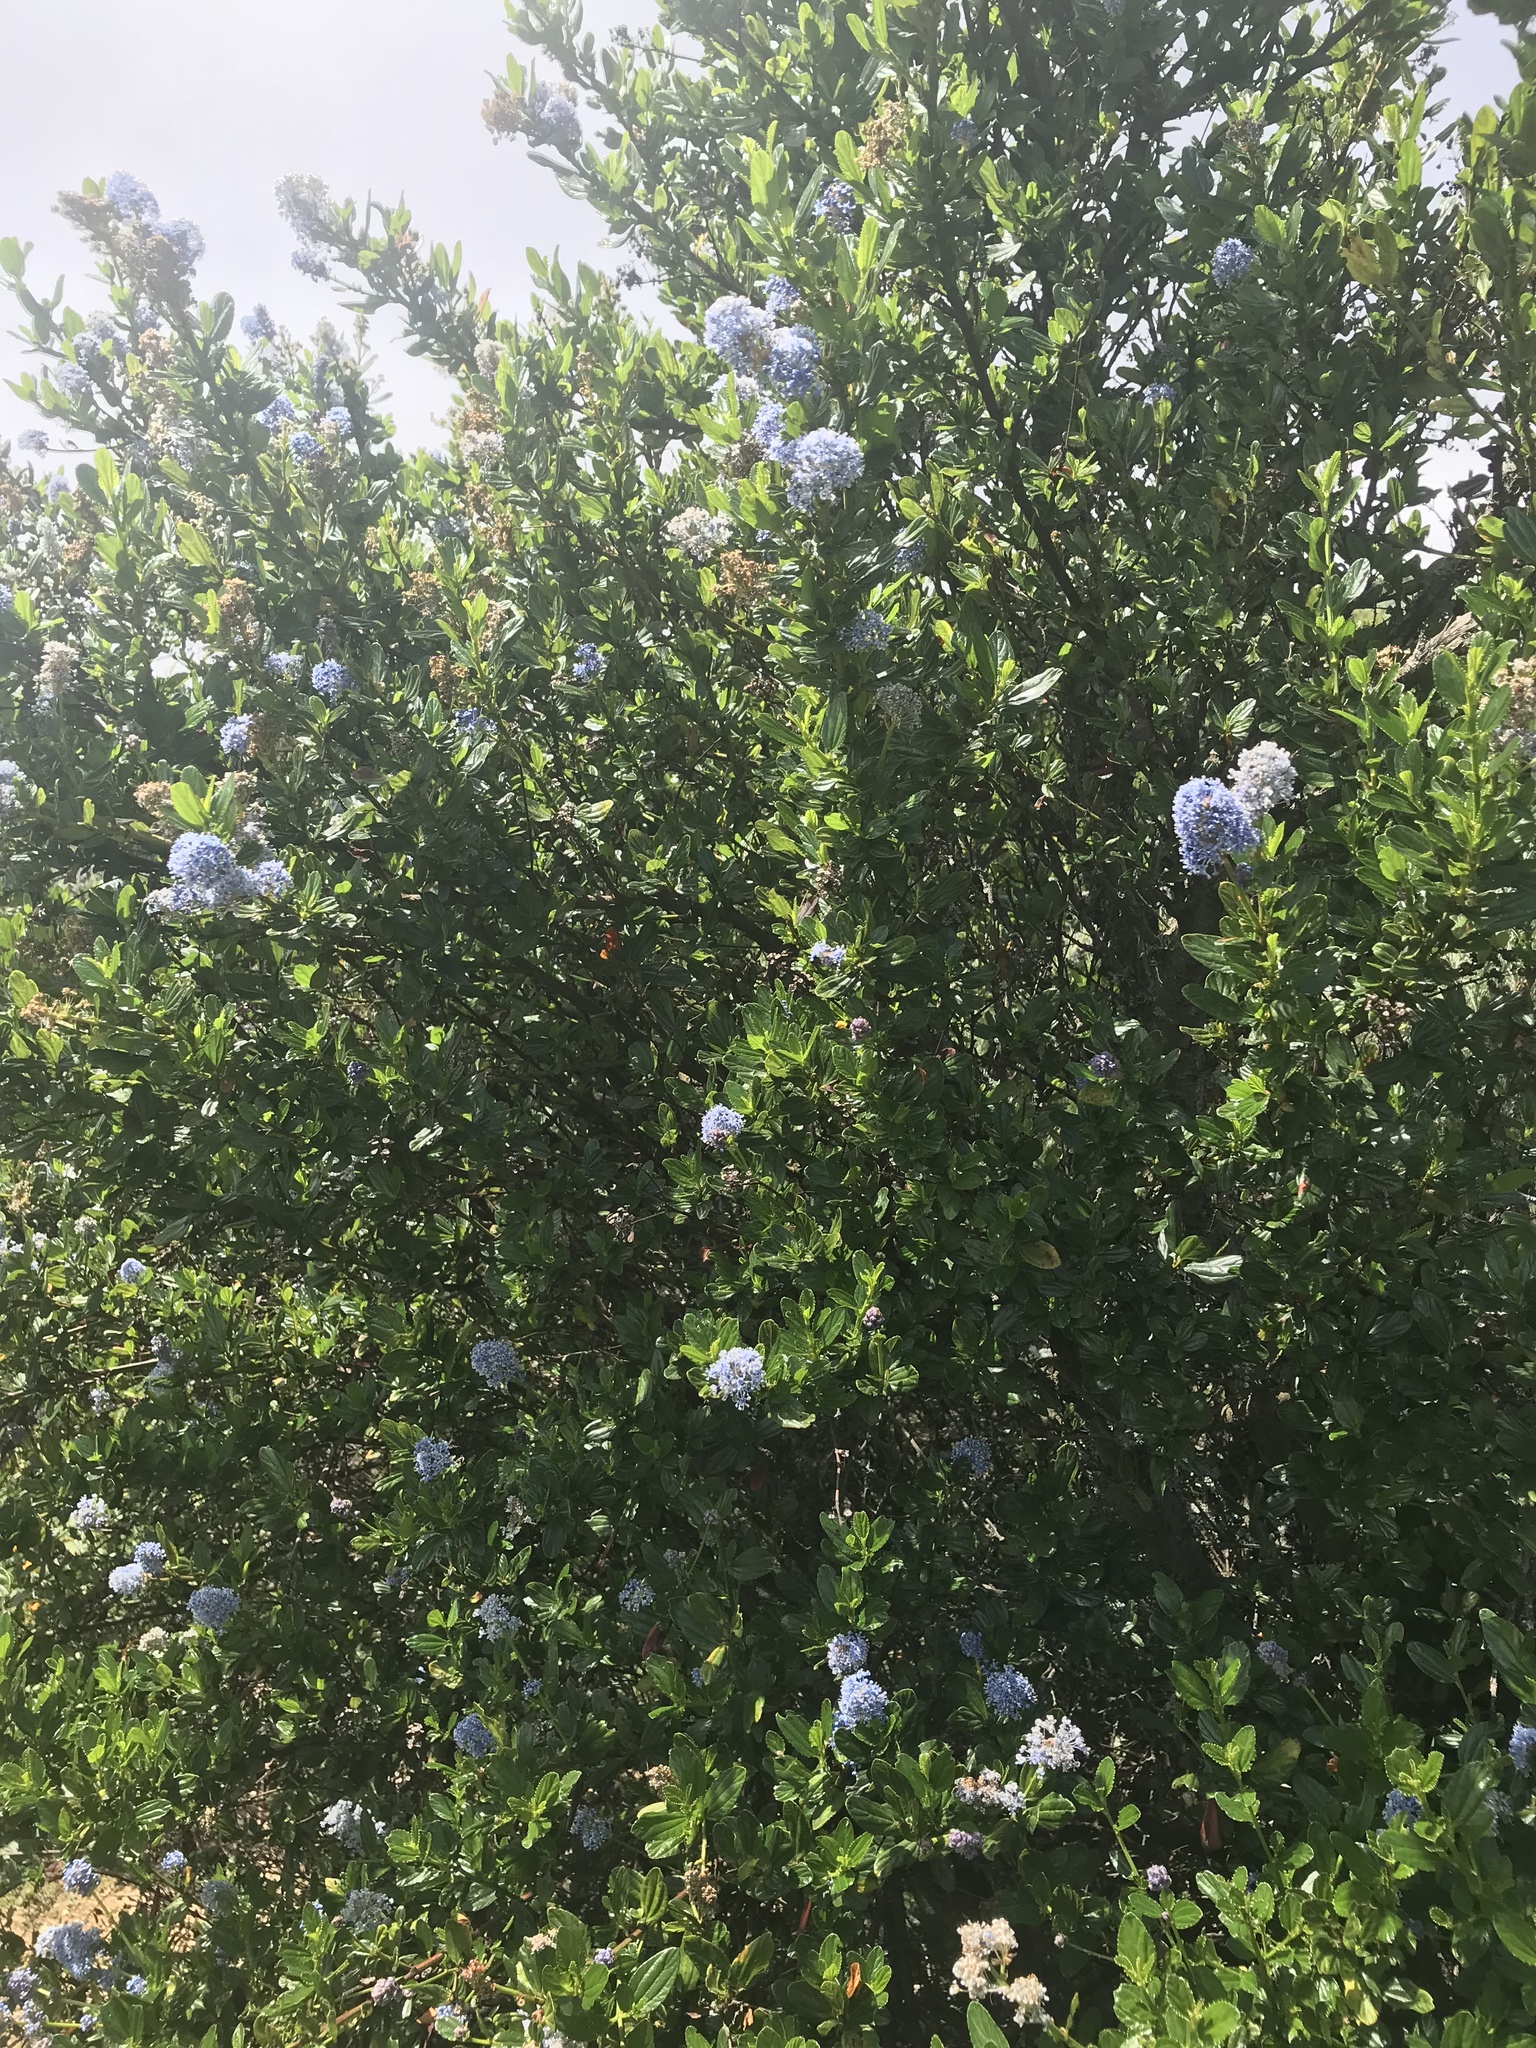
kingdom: Plantae
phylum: Tracheophyta
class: Magnoliopsida
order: Rosales
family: Rhamnaceae
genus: Ceanothus
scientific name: Ceanothus thyrsiflorus
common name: California-lilac
